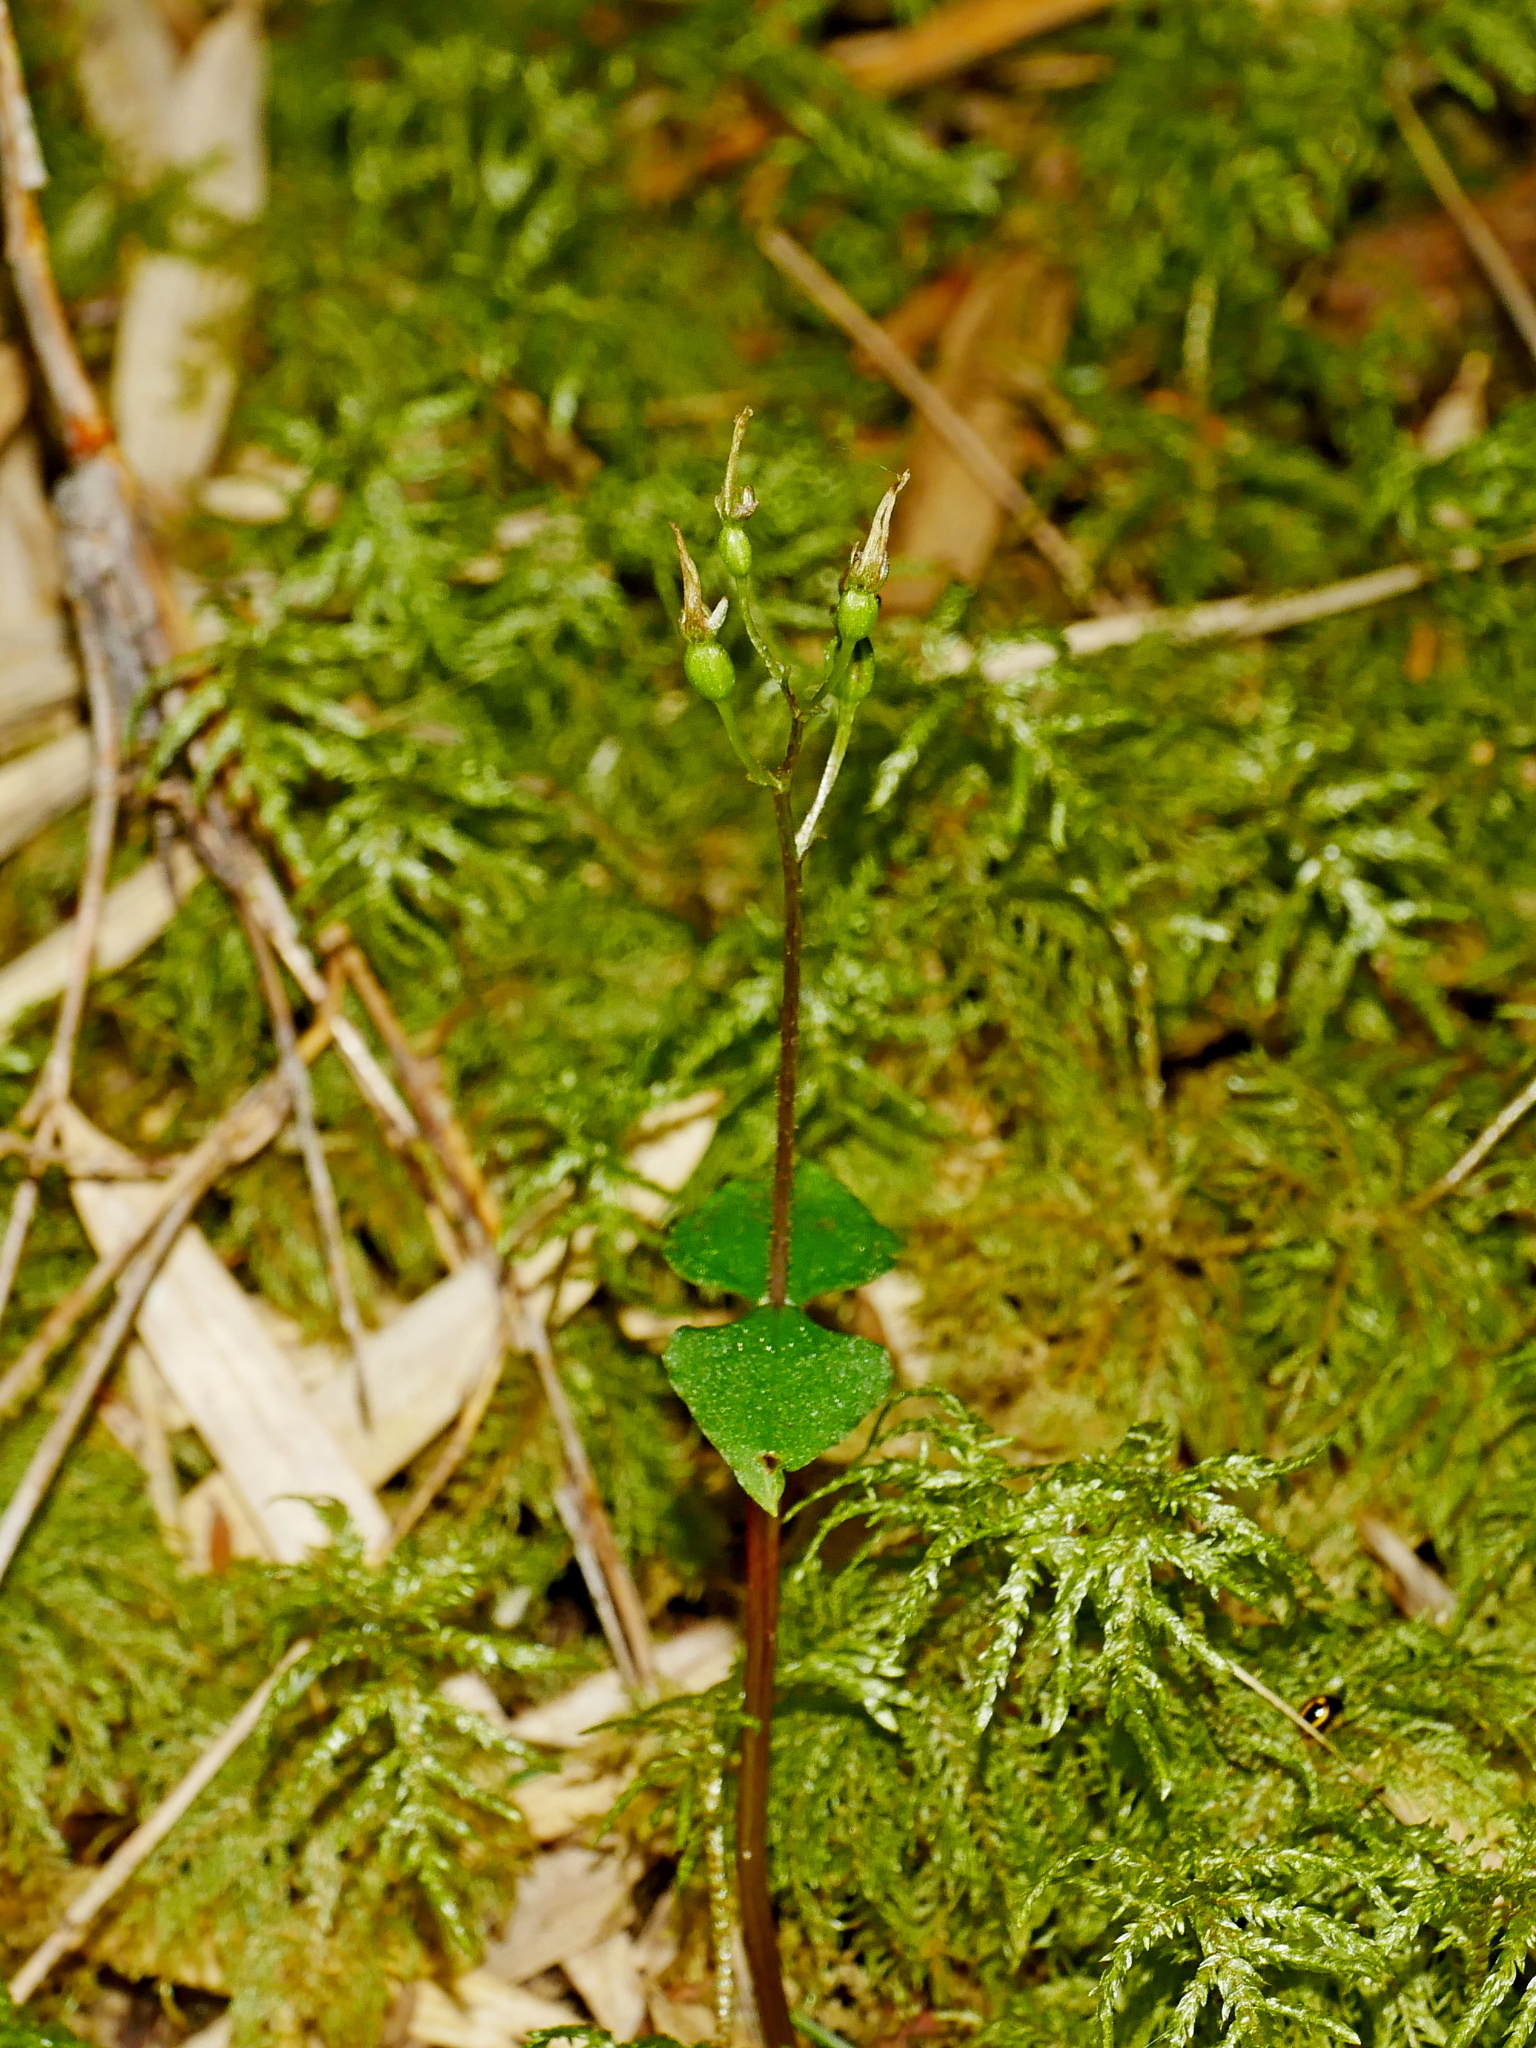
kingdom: Plantae
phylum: Tracheophyta
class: Liliopsida
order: Asparagales
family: Orchidaceae
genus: Neottia
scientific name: Neottia atayalica
